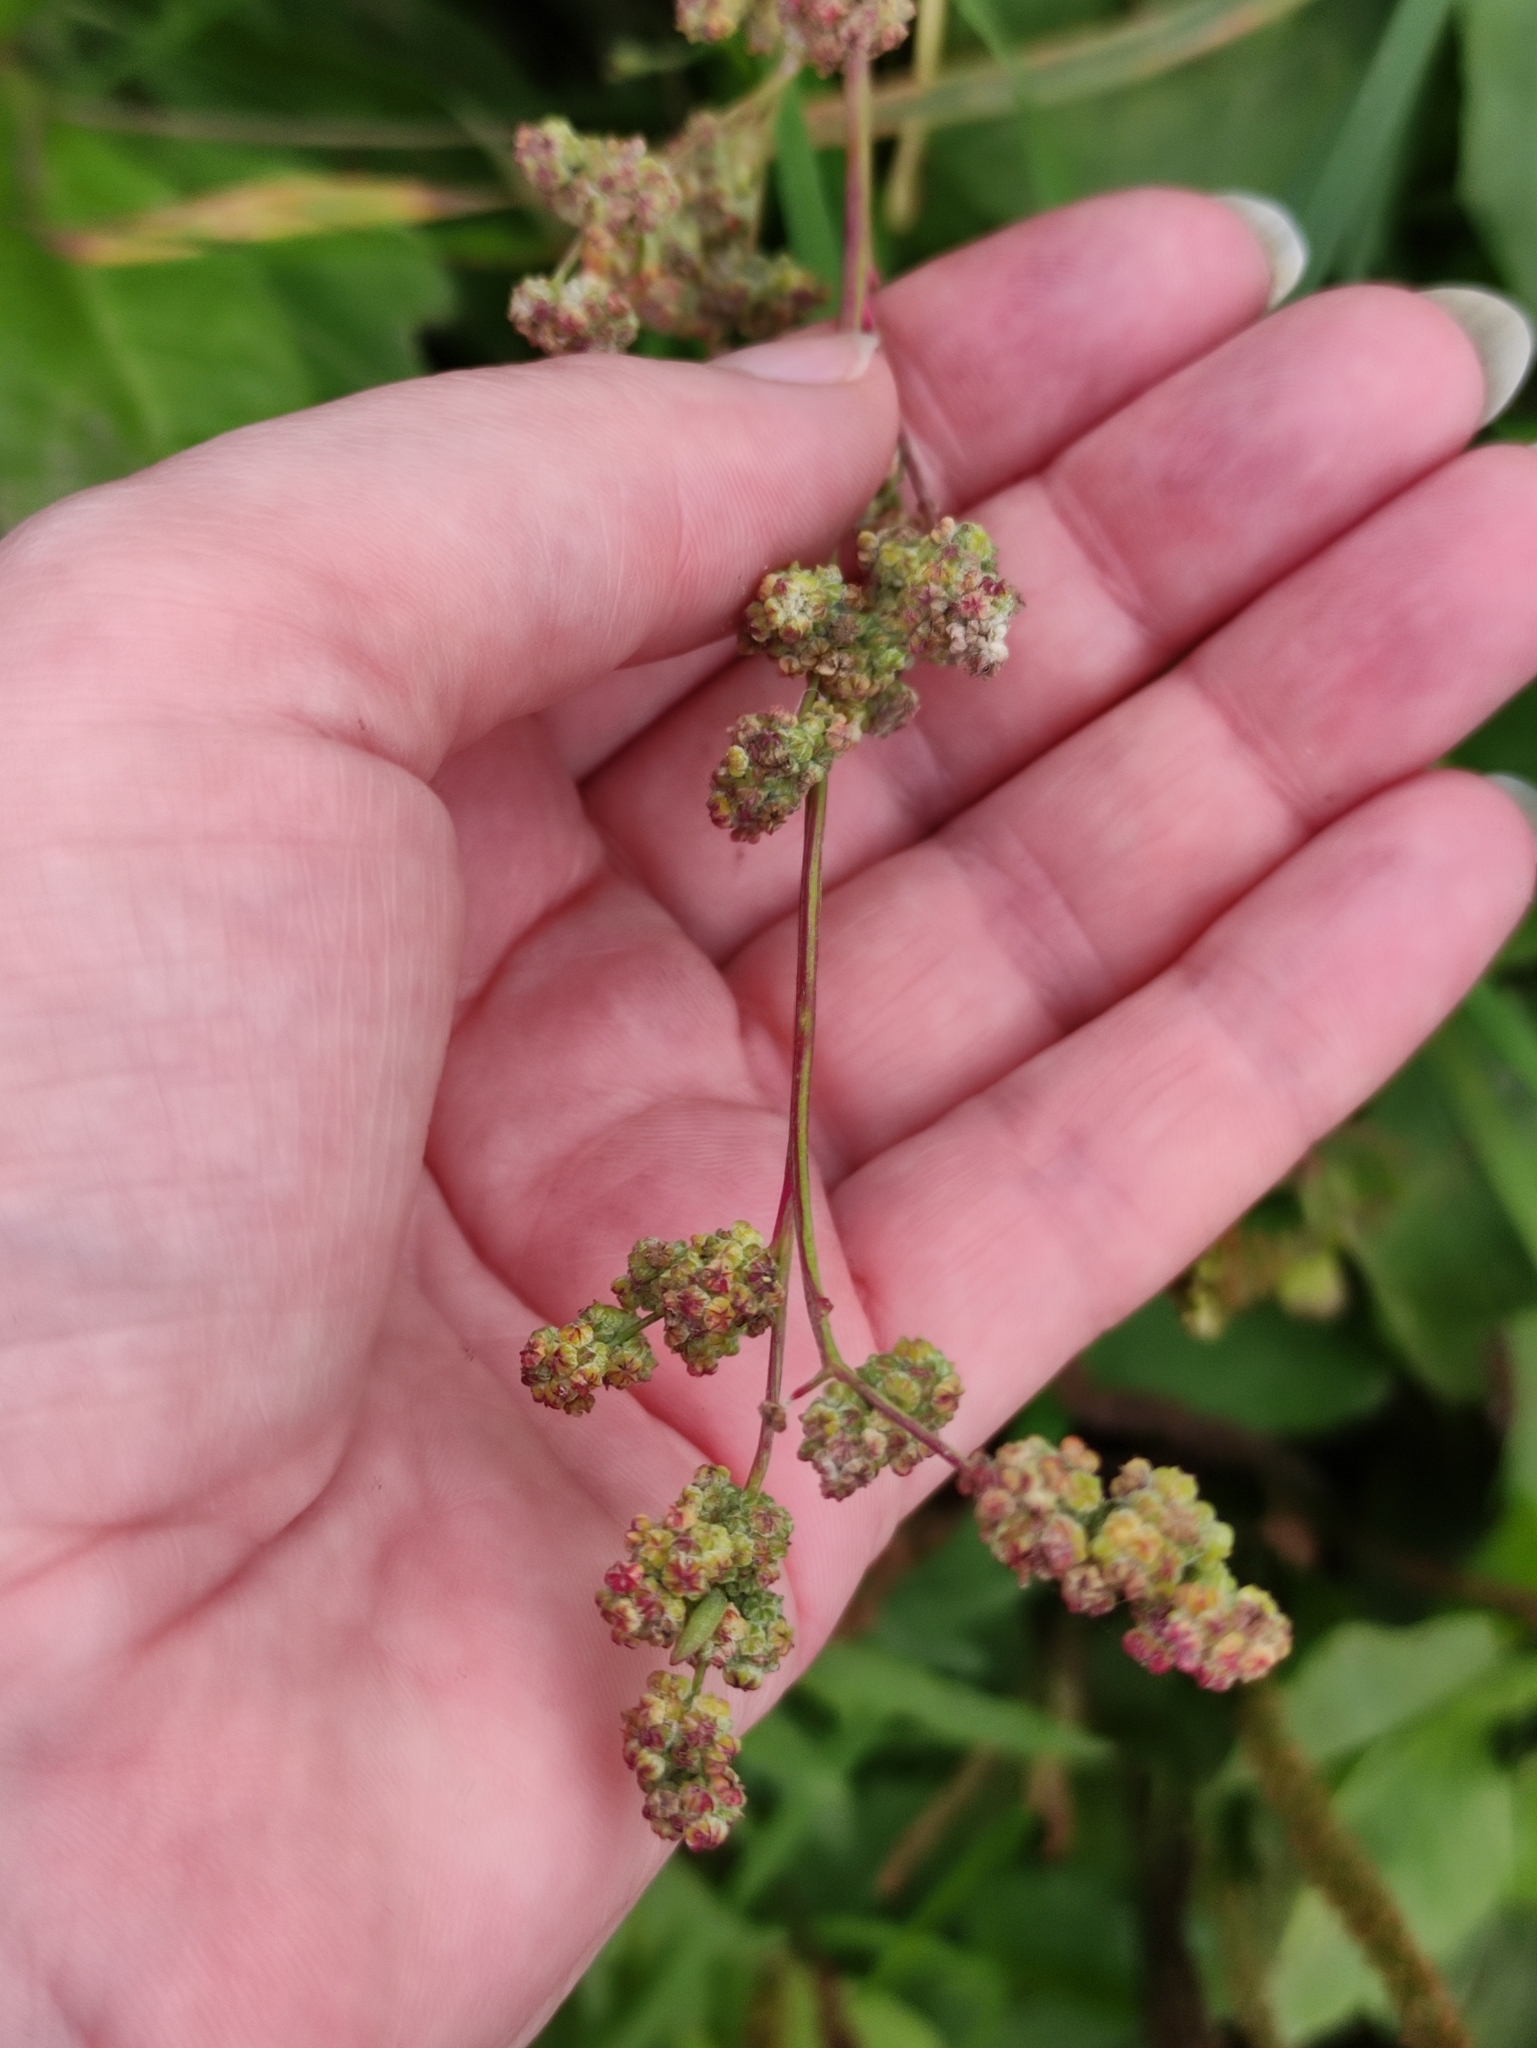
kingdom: Plantae
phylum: Tracheophyta
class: Magnoliopsida
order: Caryophyllales
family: Amaranthaceae
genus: Chenopodium
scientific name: Chenopodium album
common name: Fat-hen
